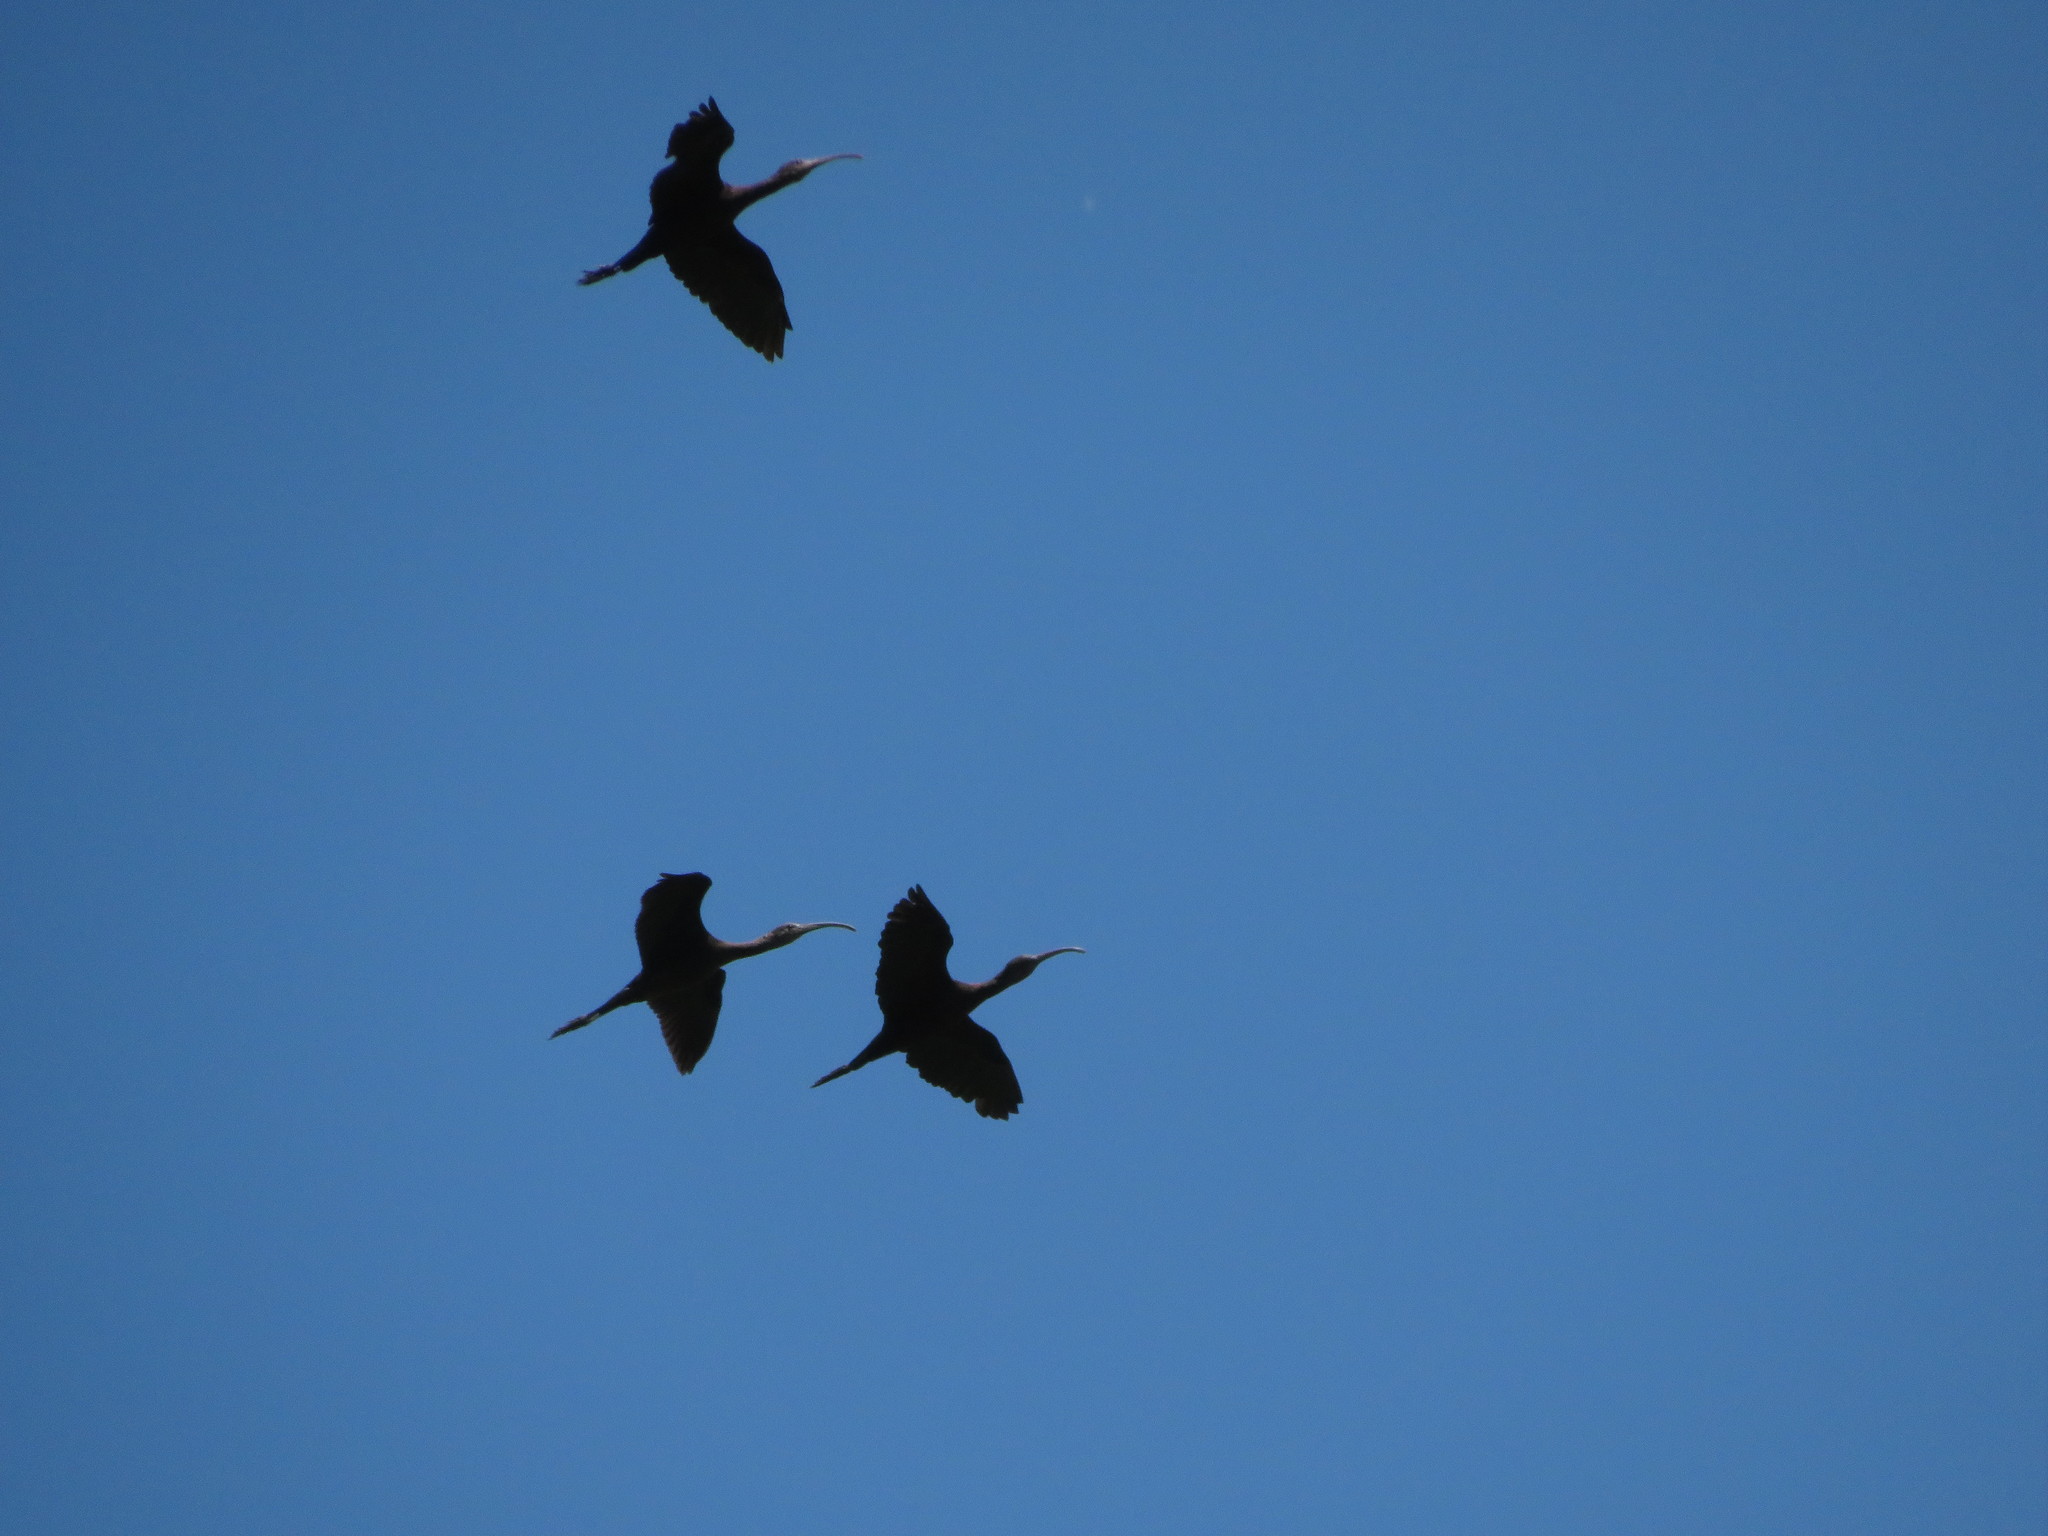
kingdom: Animalia
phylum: Chordata
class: Aves
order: Pelecaniformes
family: Threskiornithidae
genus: Plegadis
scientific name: Plegadis chihi
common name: White-faced ibis
